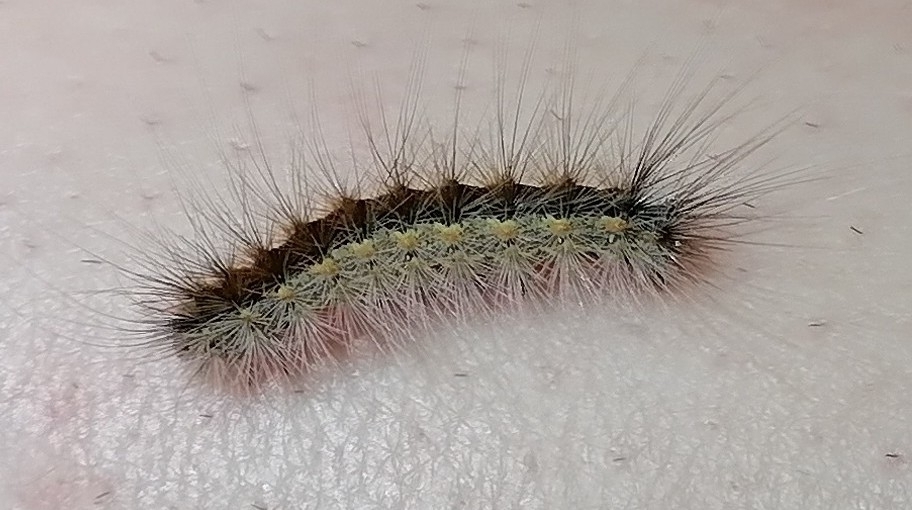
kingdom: Animalia
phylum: Arthropoda
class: Insecta
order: Lepidoptera
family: Erebidae
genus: Hyphantria
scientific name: Hyphantria cunea
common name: American white moth
